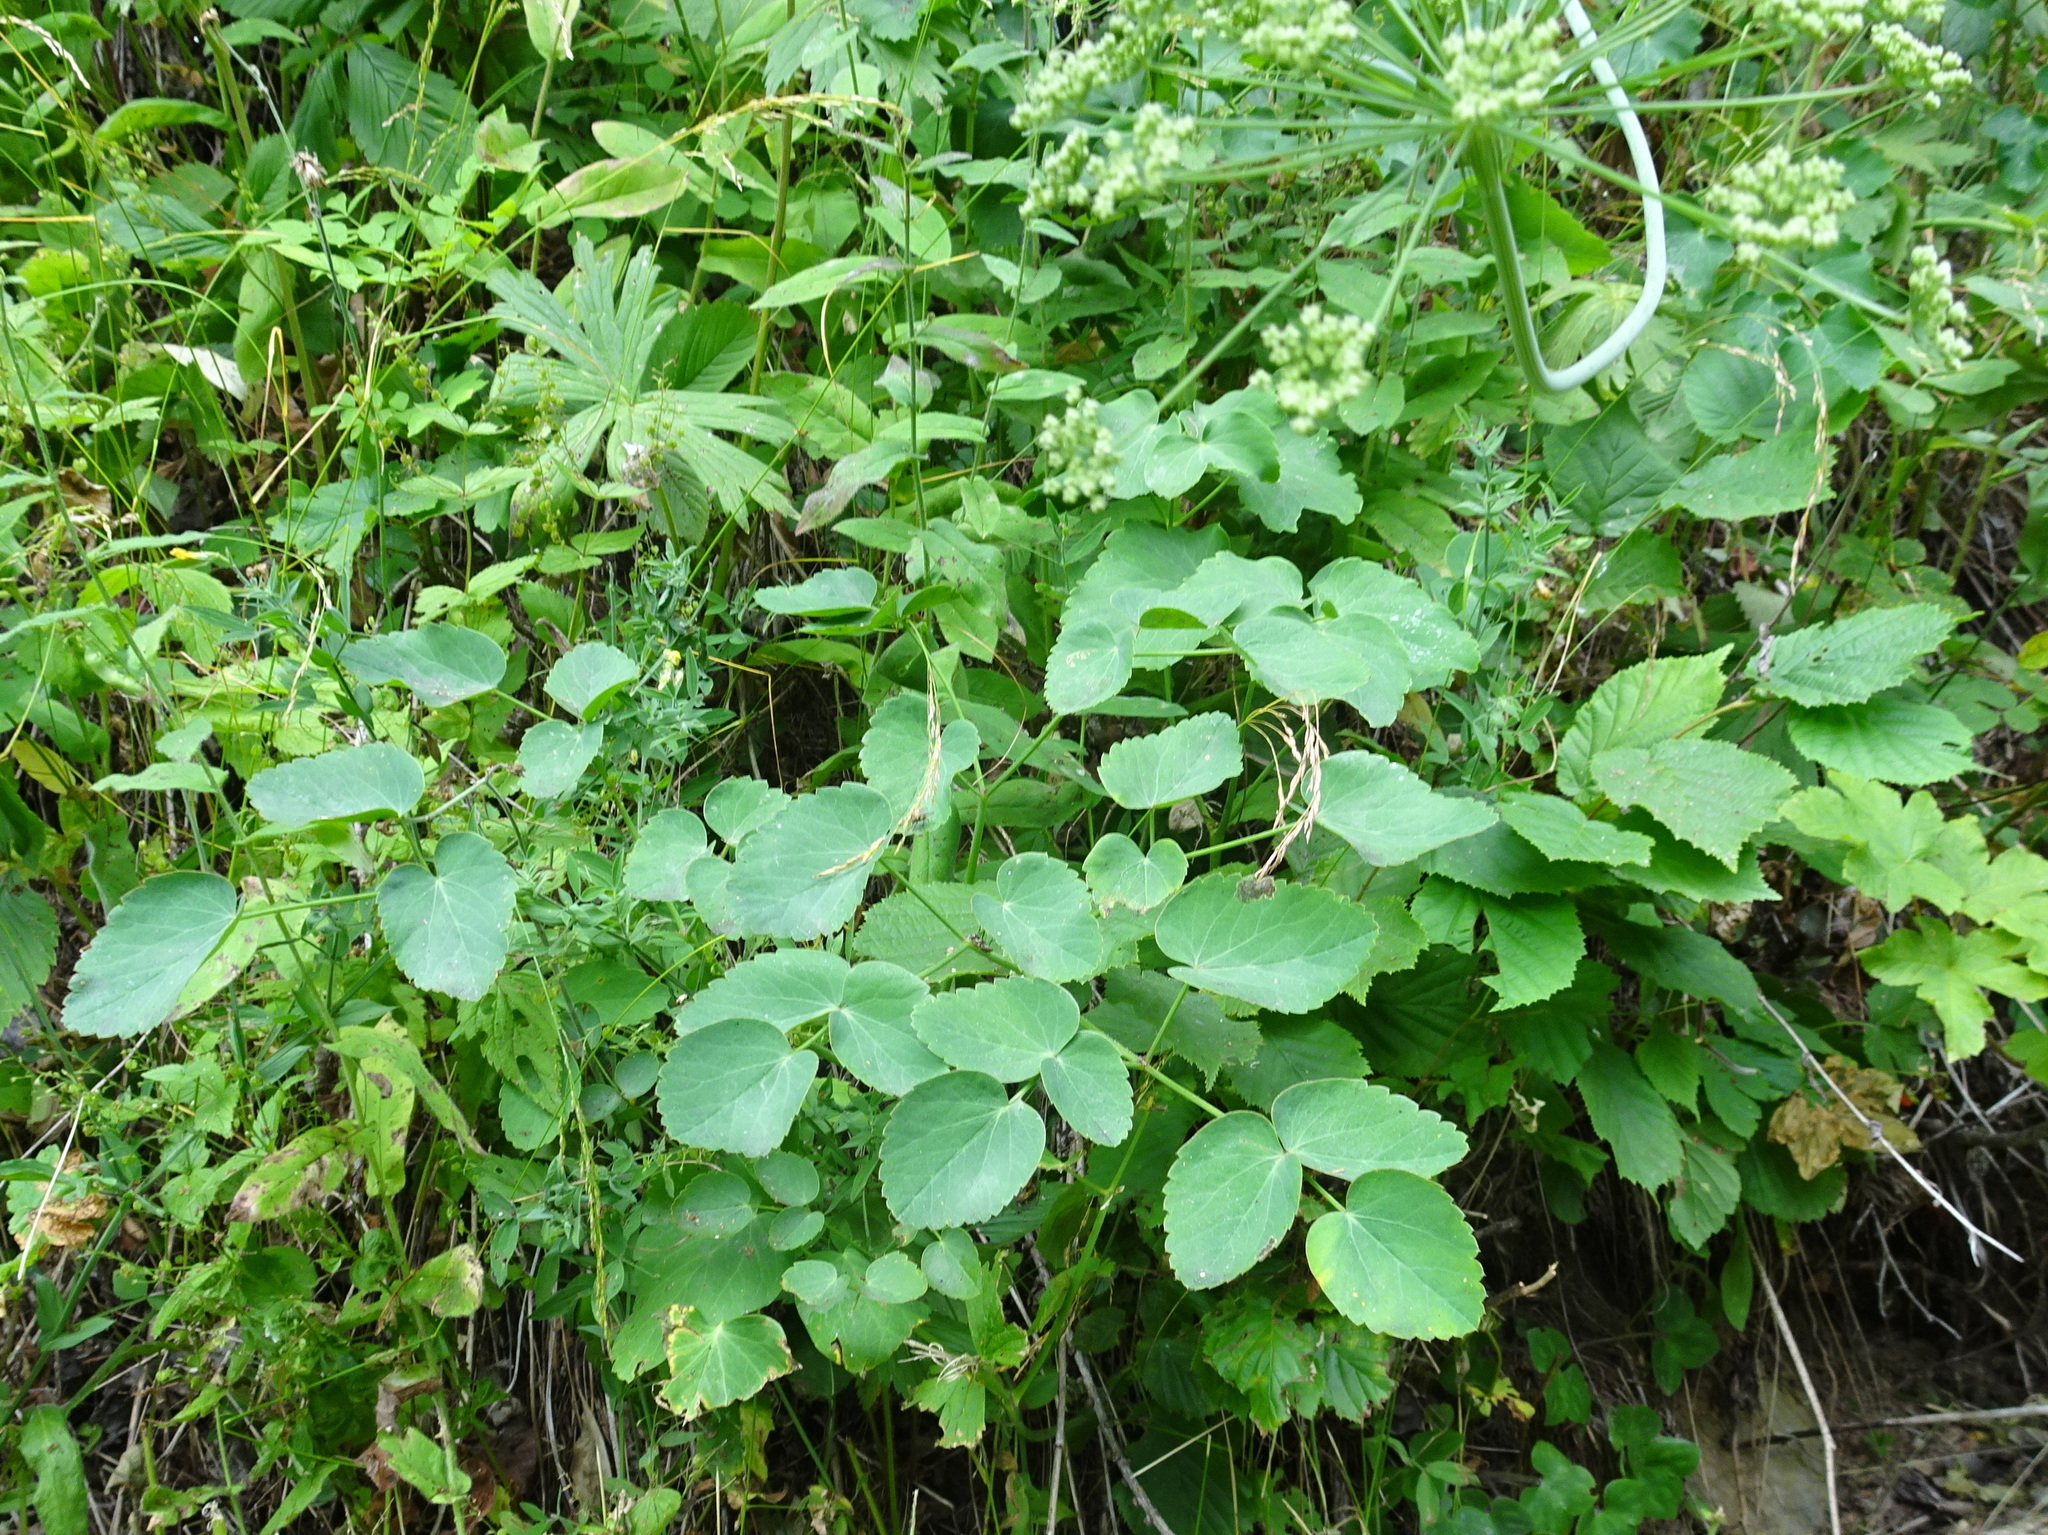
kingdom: Plantae
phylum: Tracheophyta
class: Magnoliopsida
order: Apiales
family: Apiaceae
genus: Laserpitium
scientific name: Laserpitium latifolium
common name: Broadleaf sermountain
